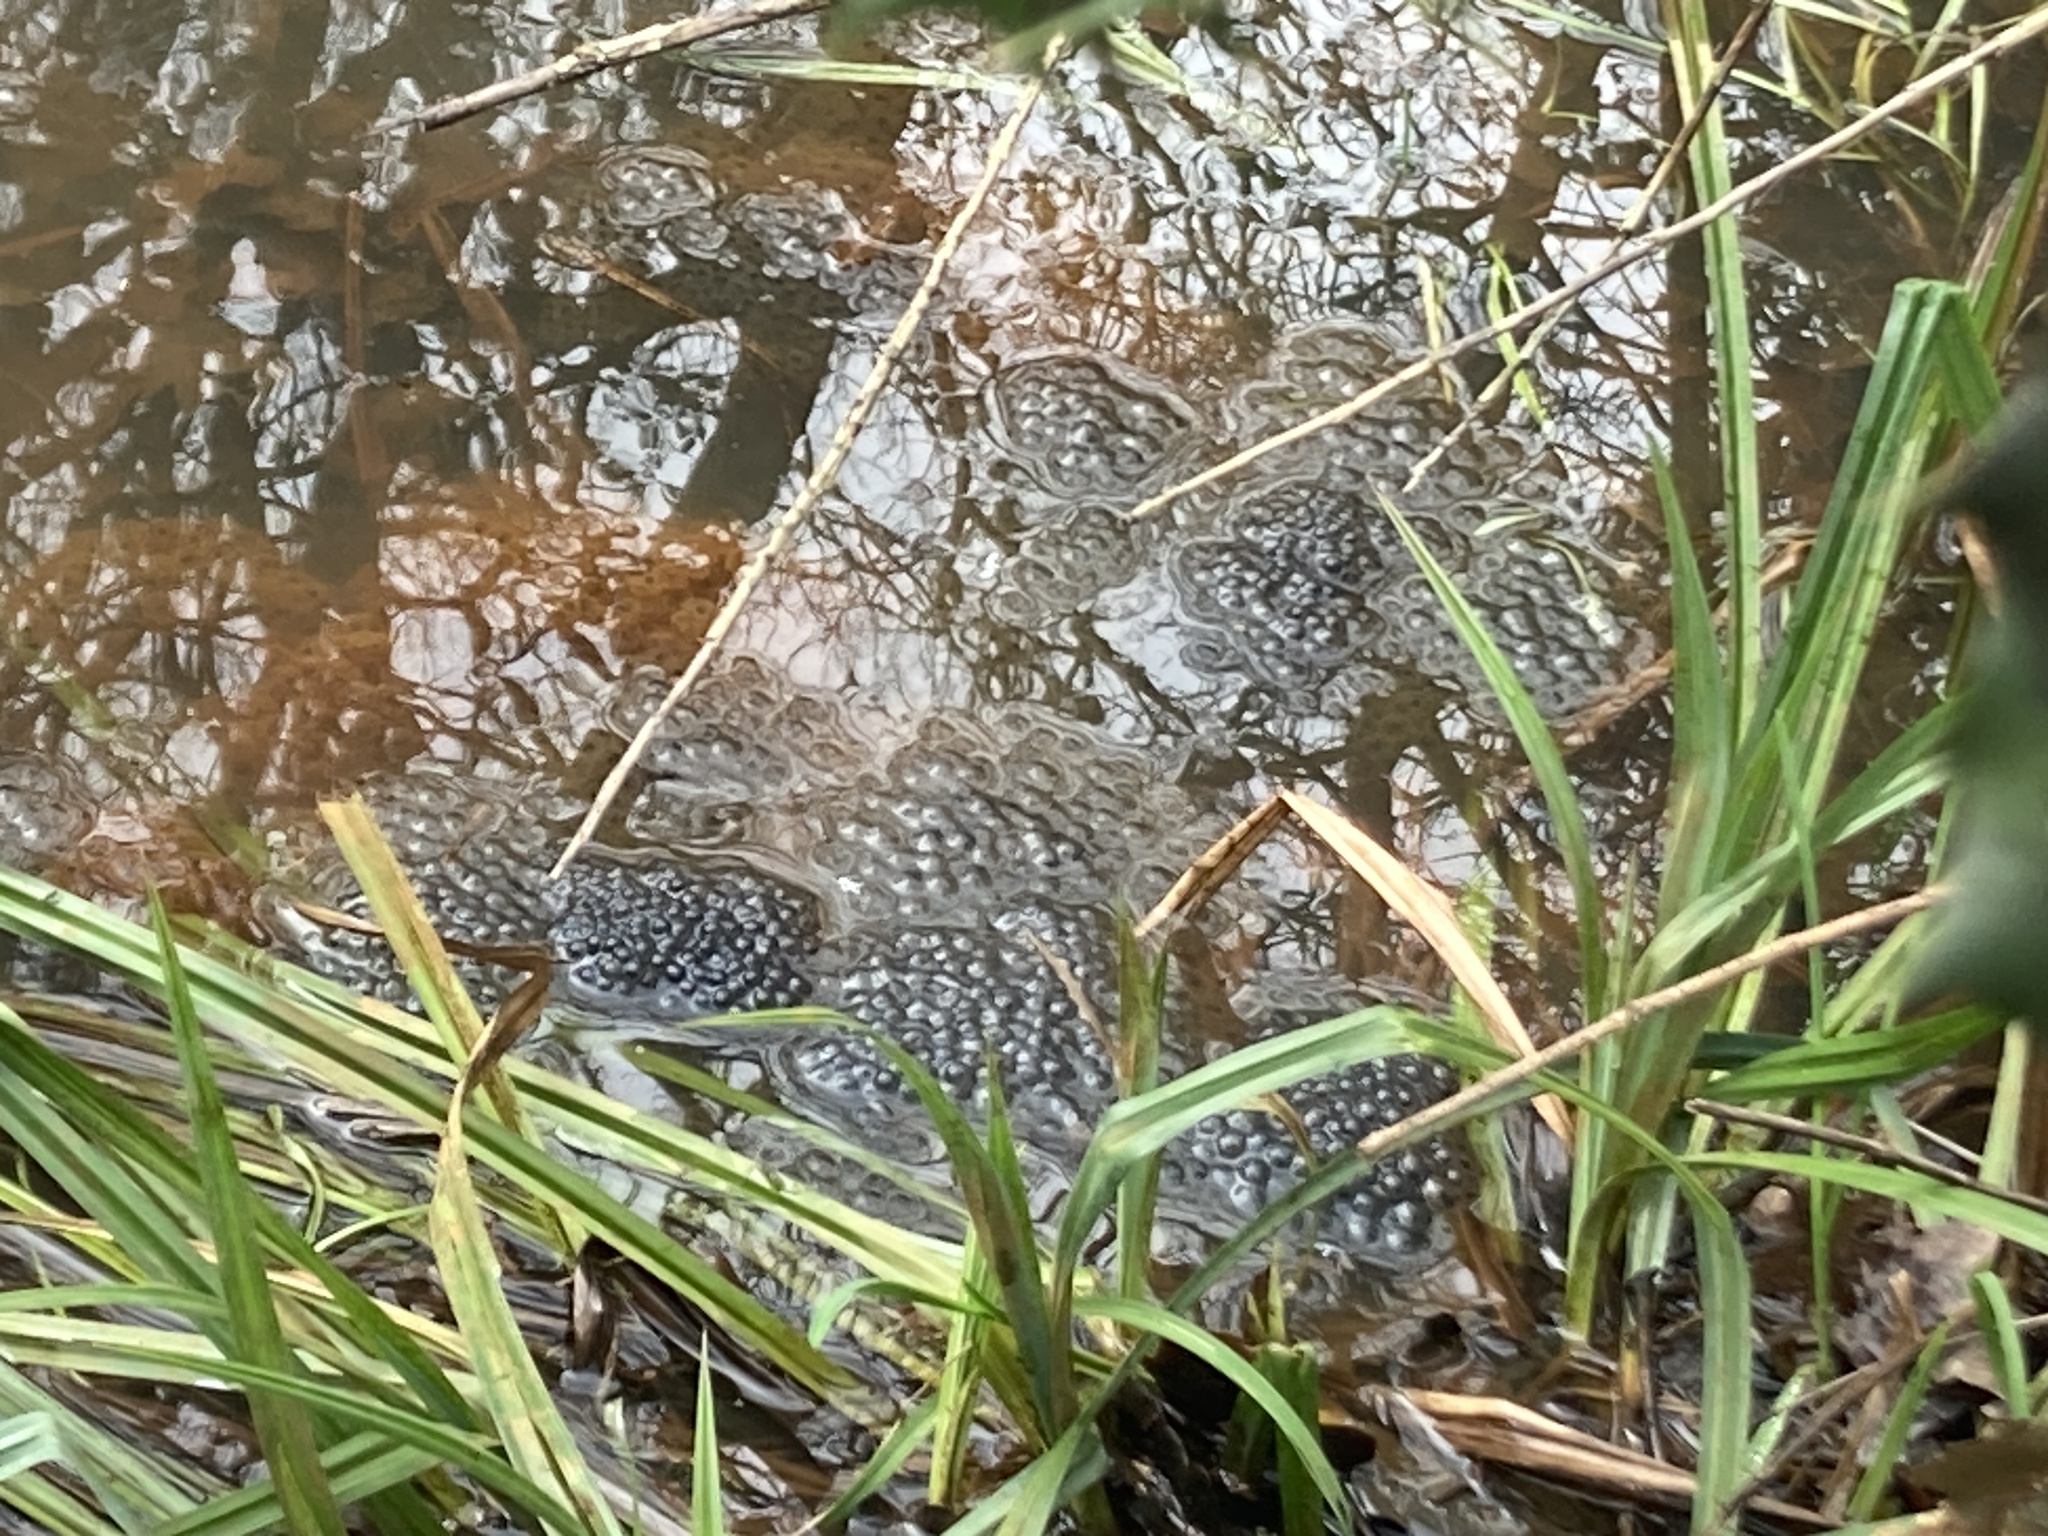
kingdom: Animalia
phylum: Chordata
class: Amphibia
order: Anura
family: Ranidae
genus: Rana
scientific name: Rana temporaria
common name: Common frog
